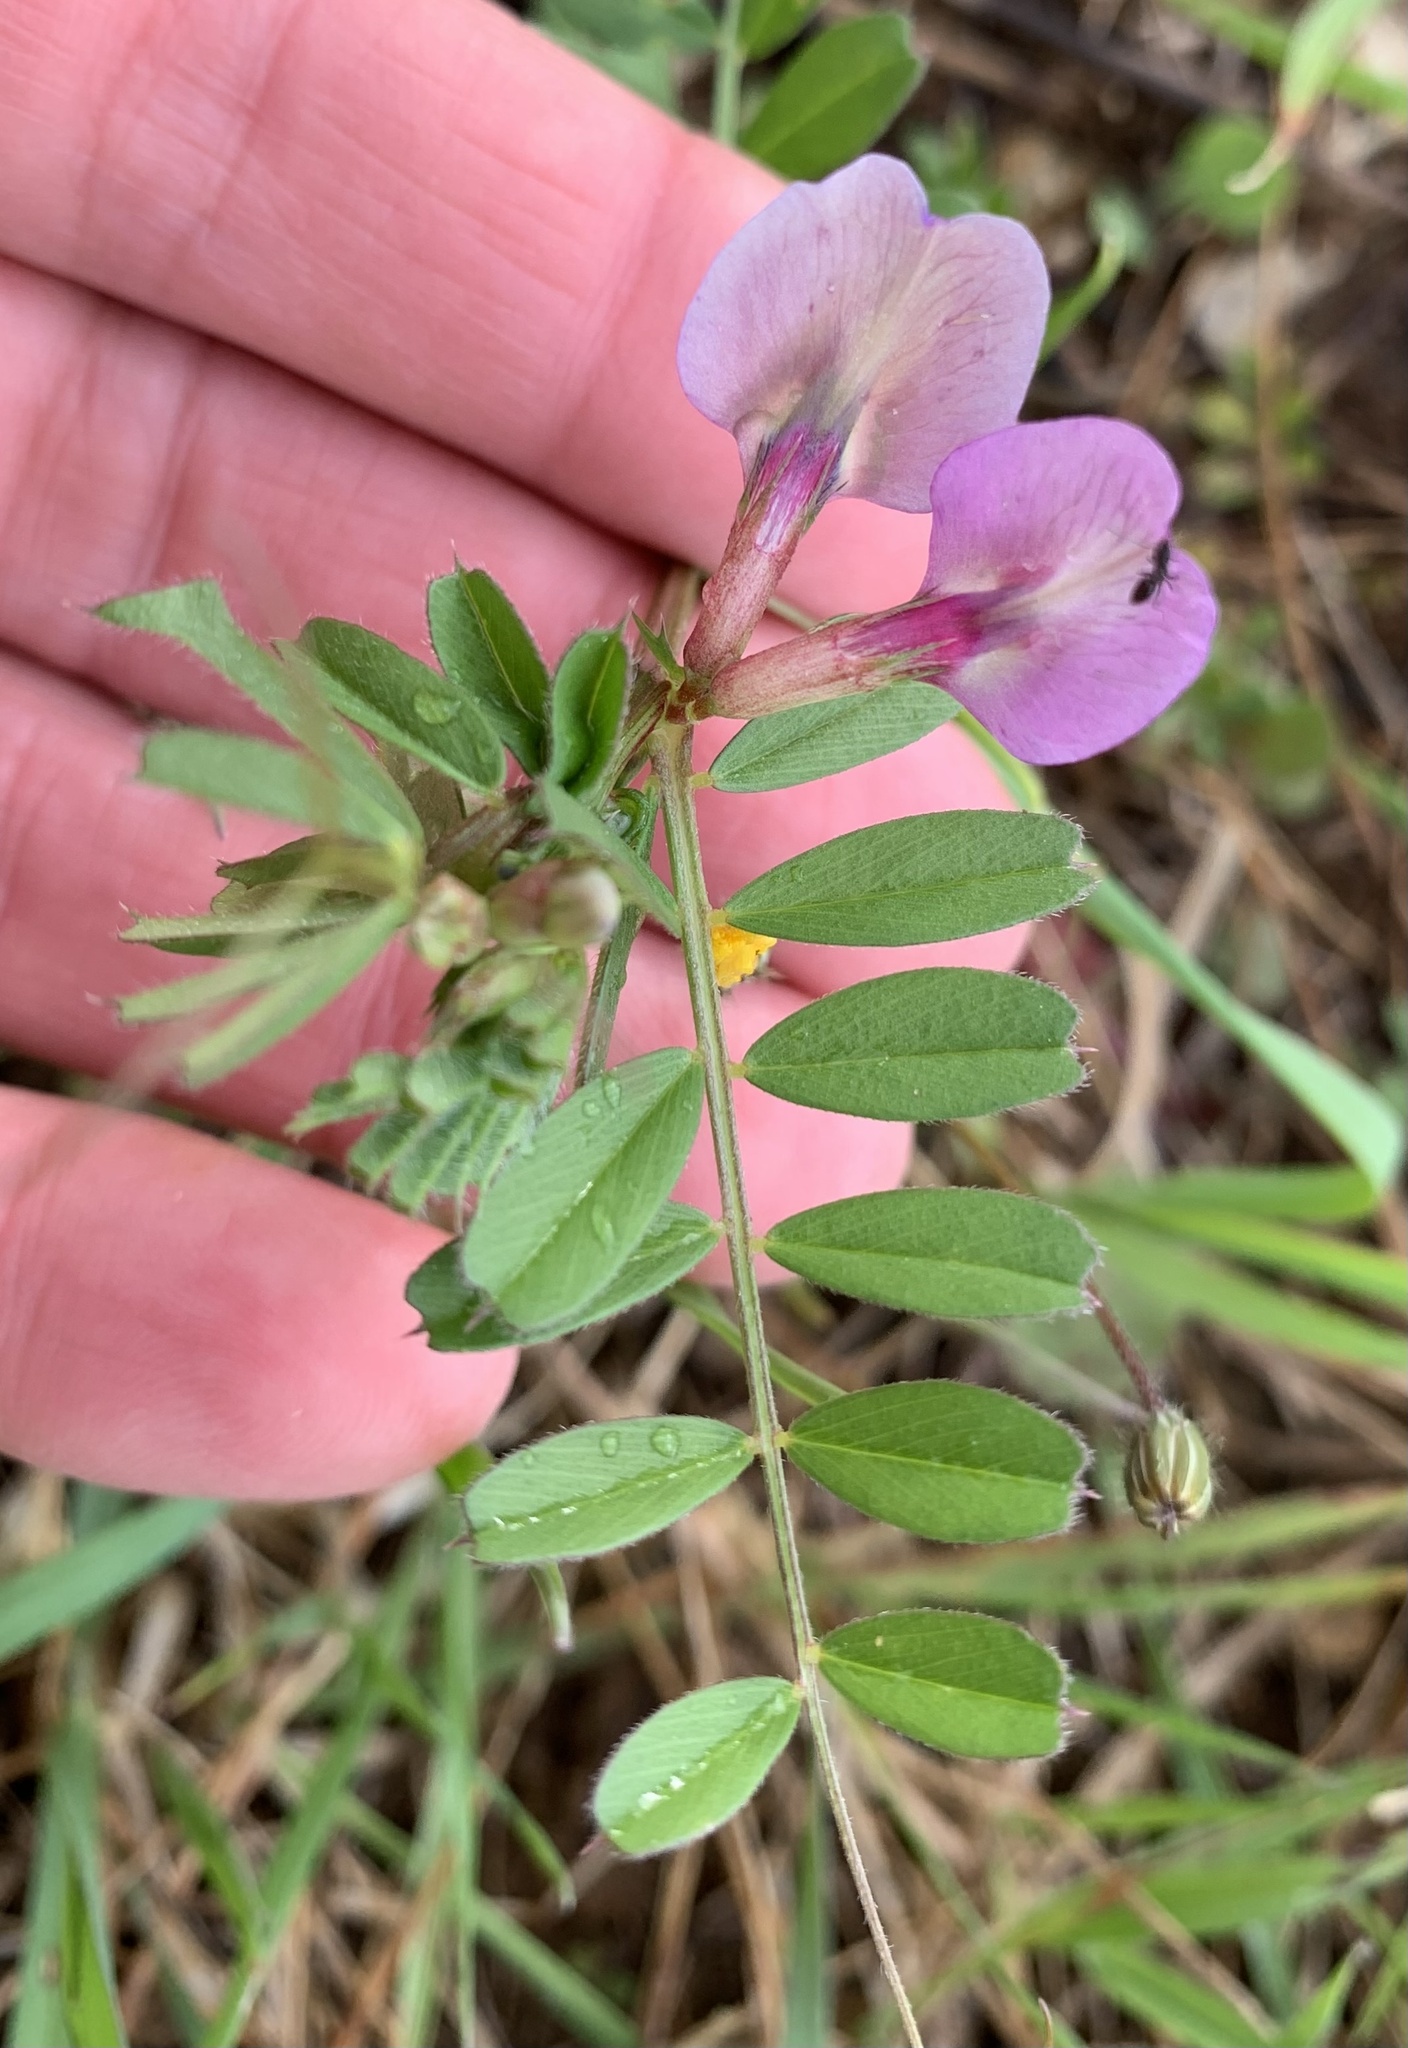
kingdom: Plantae
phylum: Tracheophyta
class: Magnoliopsida
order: Fabales
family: Fabaceae
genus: Vicia
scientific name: Vicia sativa
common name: Garden vetch
